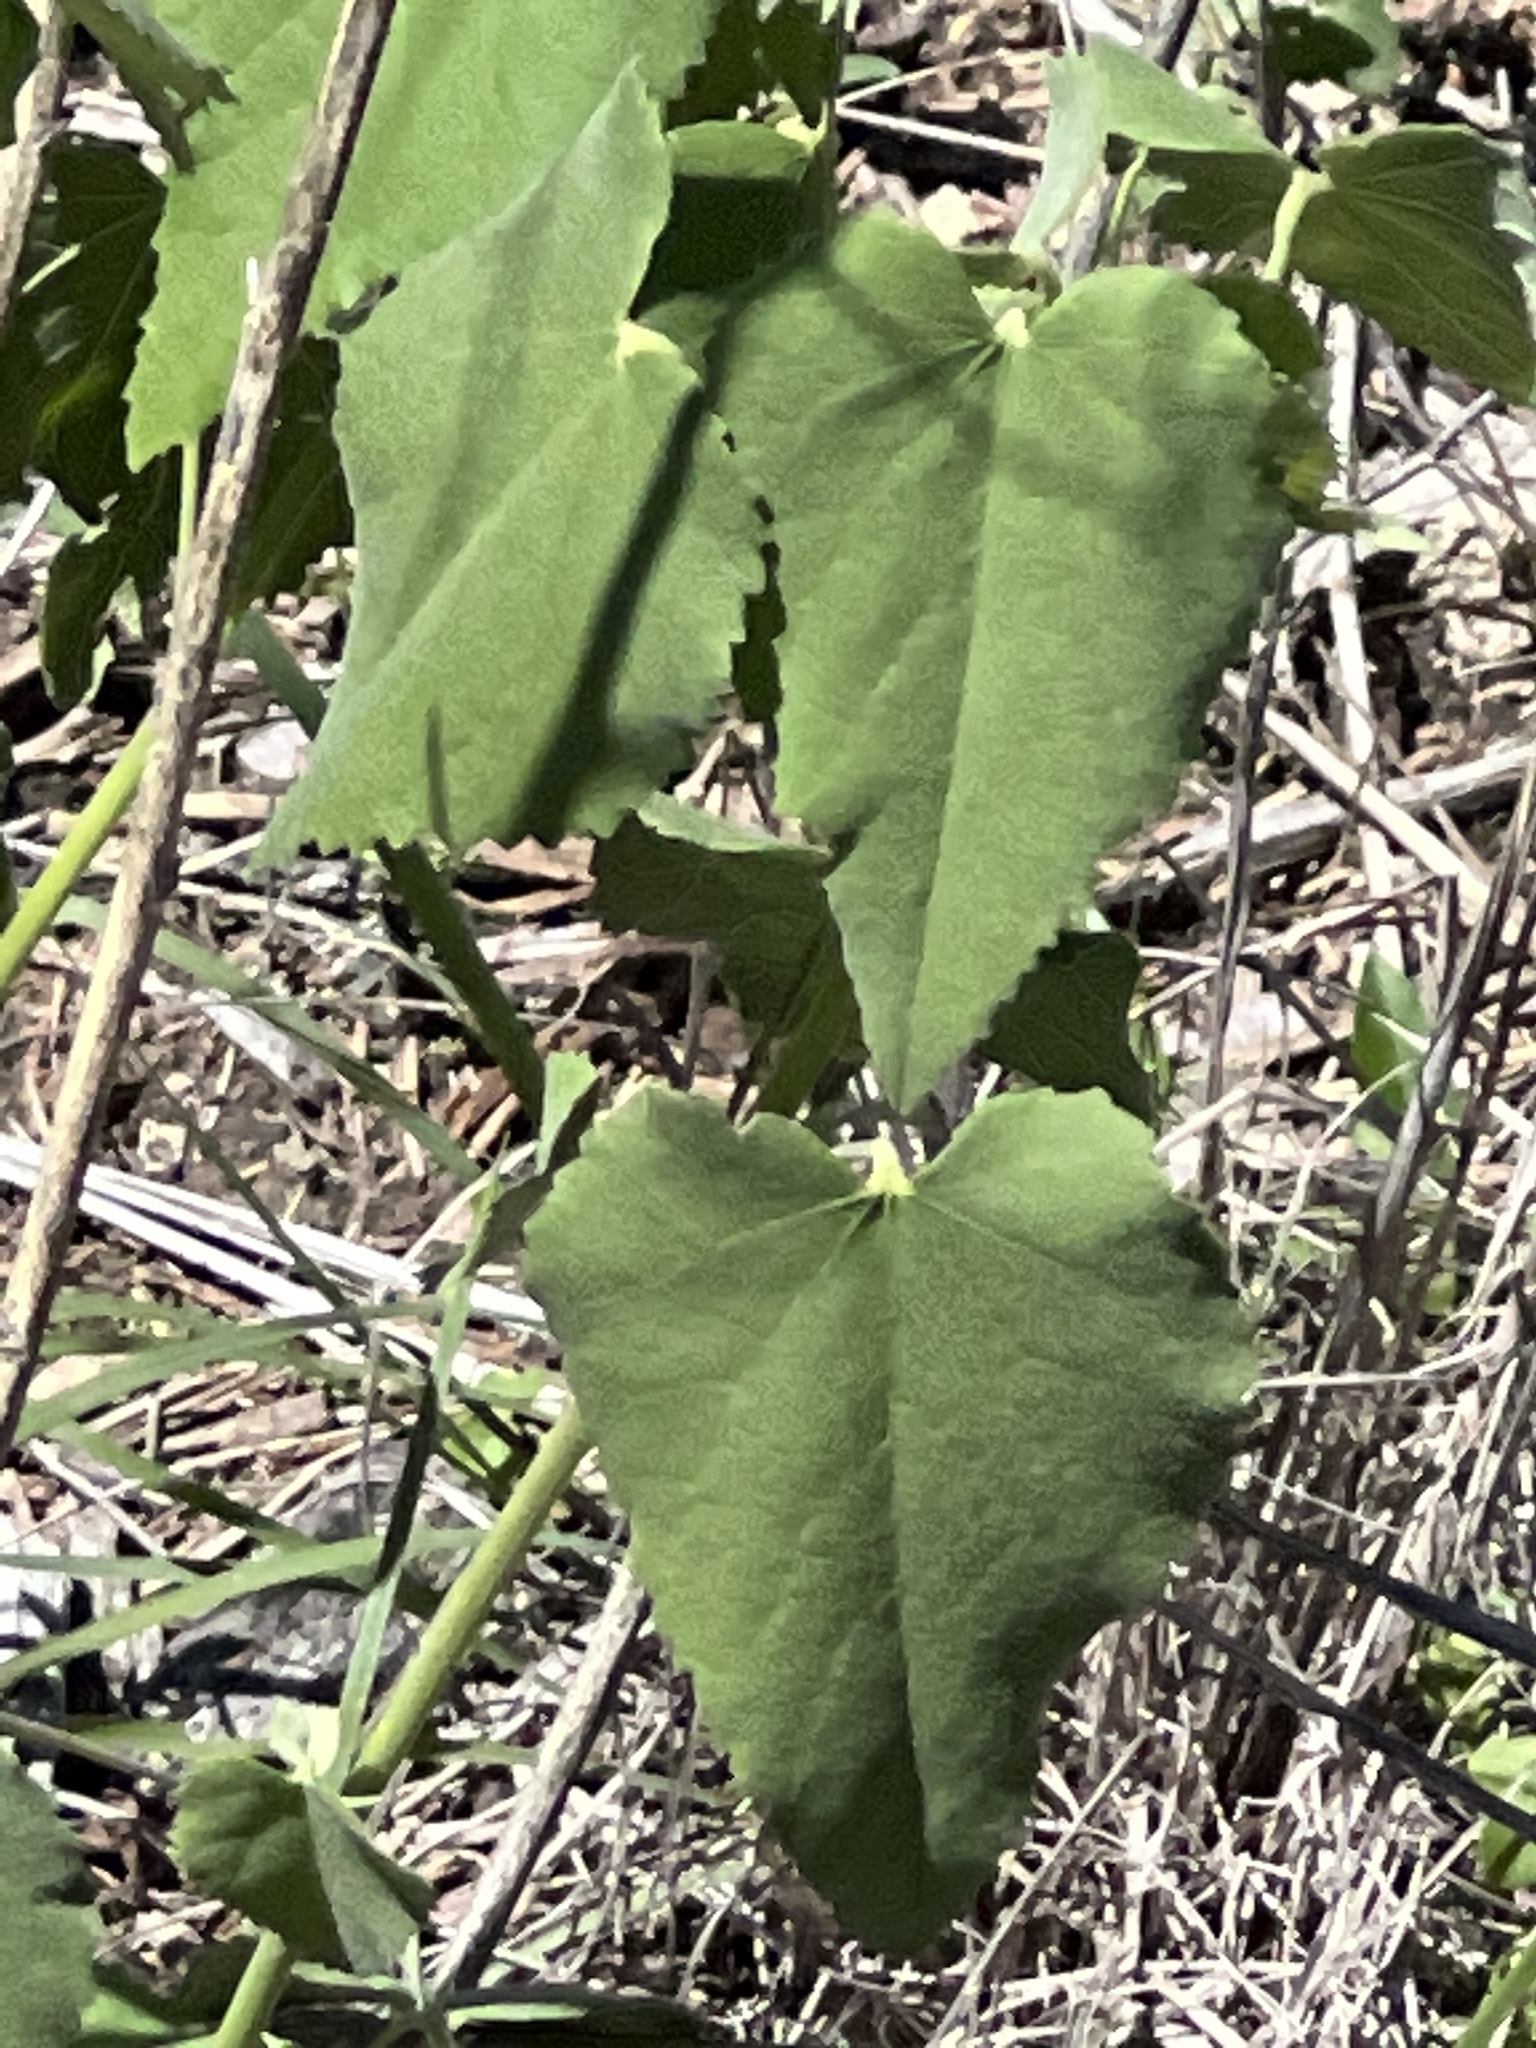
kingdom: Plantae
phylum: Tracheophyta
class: Magnoliopsida
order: Malvales
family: Malvaceae
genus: Abutilon
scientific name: Abutilon fruticosum
